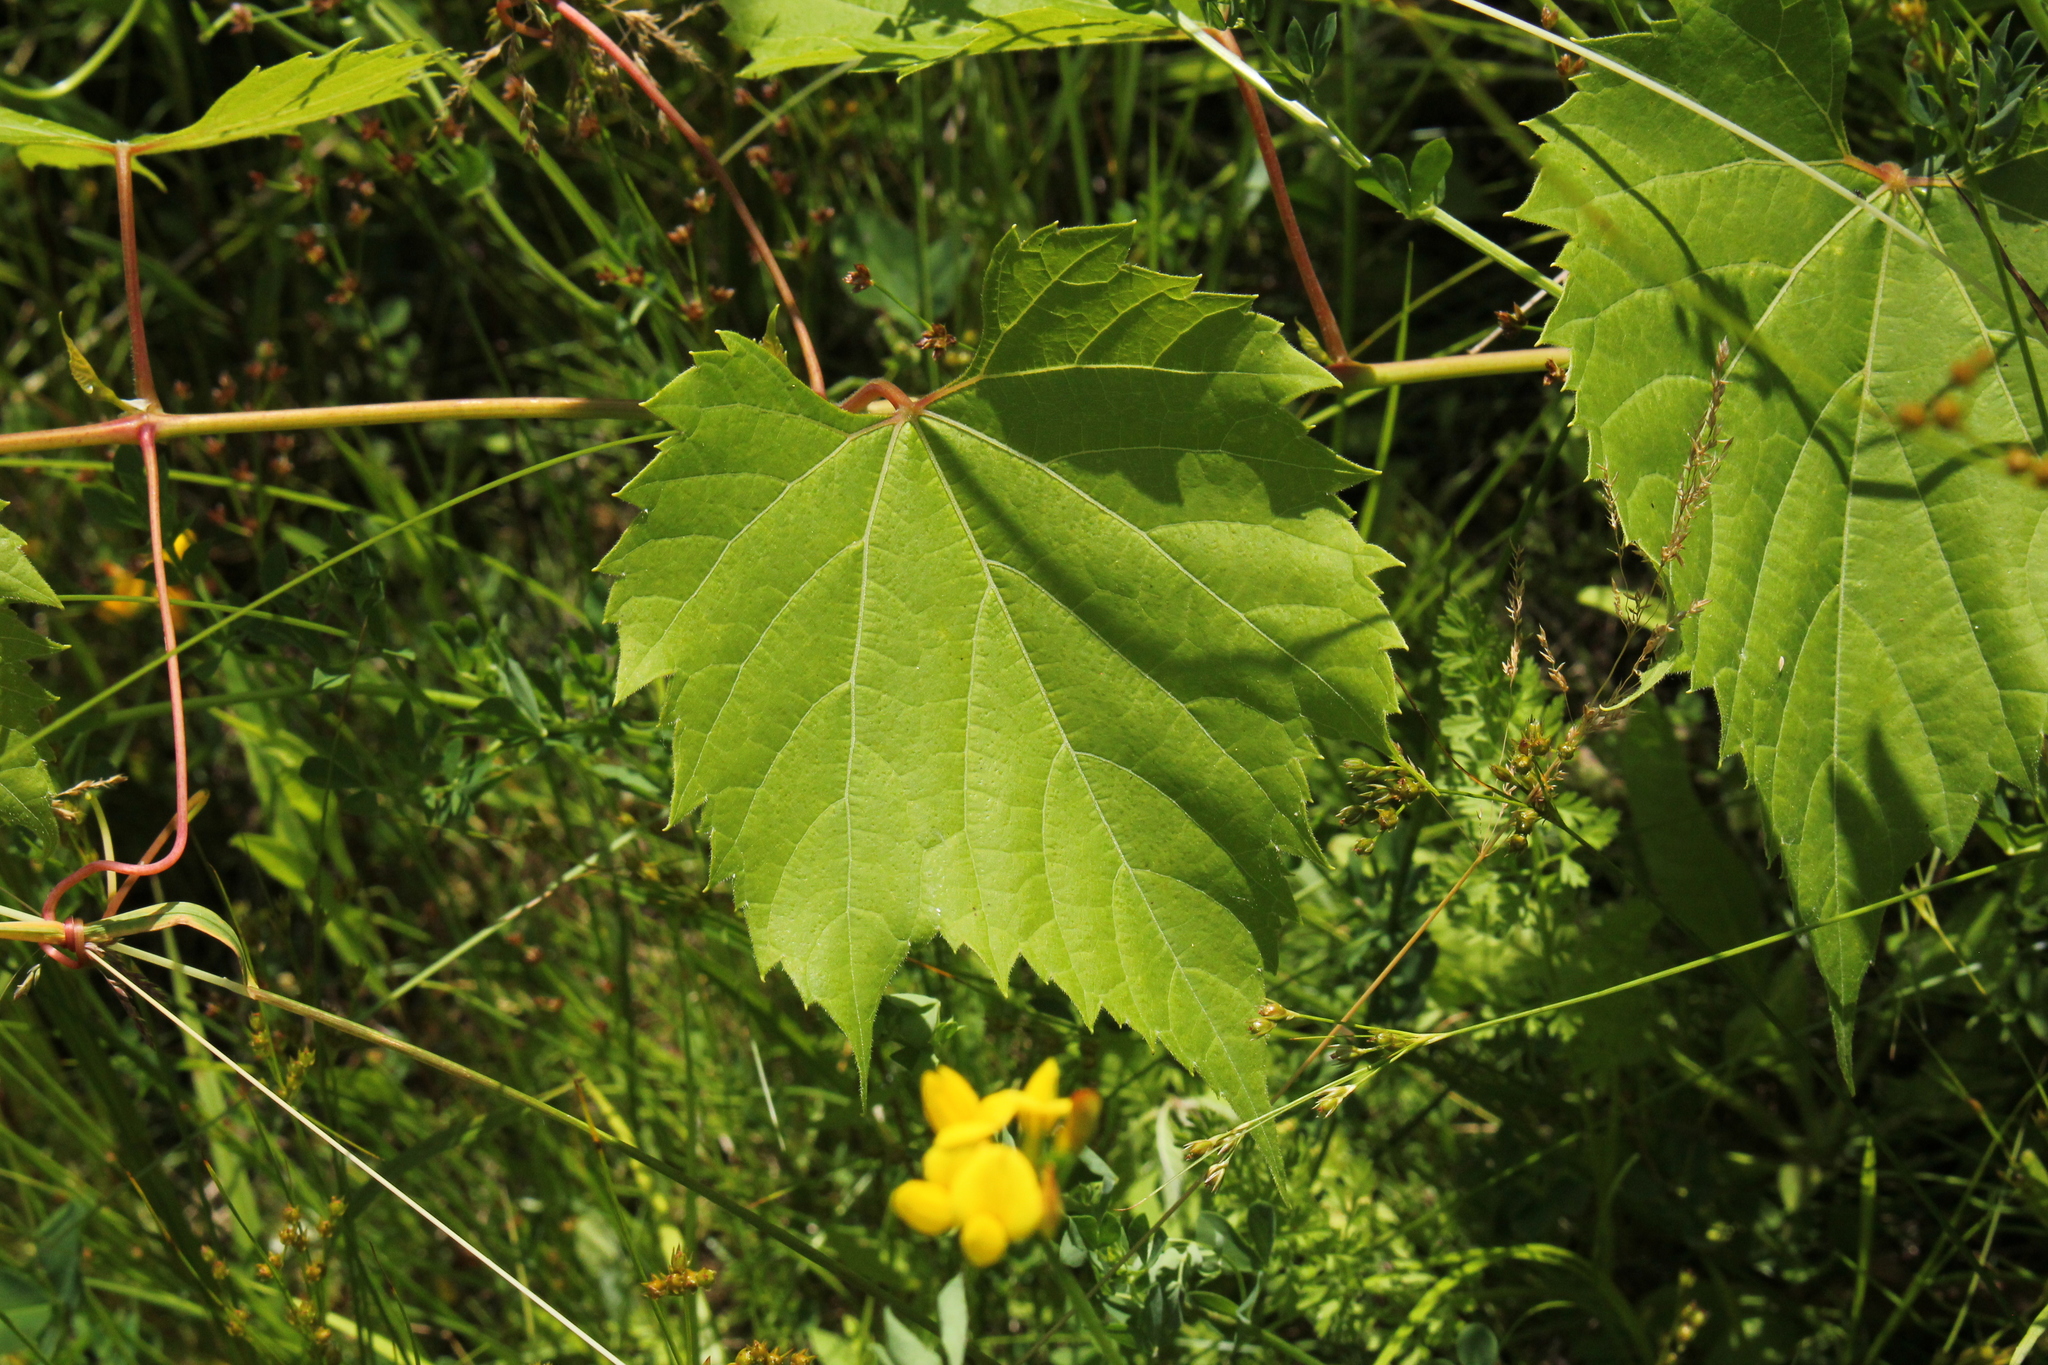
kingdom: Plantae
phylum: Tracheophyta
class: Magnoliopsida
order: Vitales
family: Vitaceae
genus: Vitis
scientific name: Vitis riparia
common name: Frost grape
